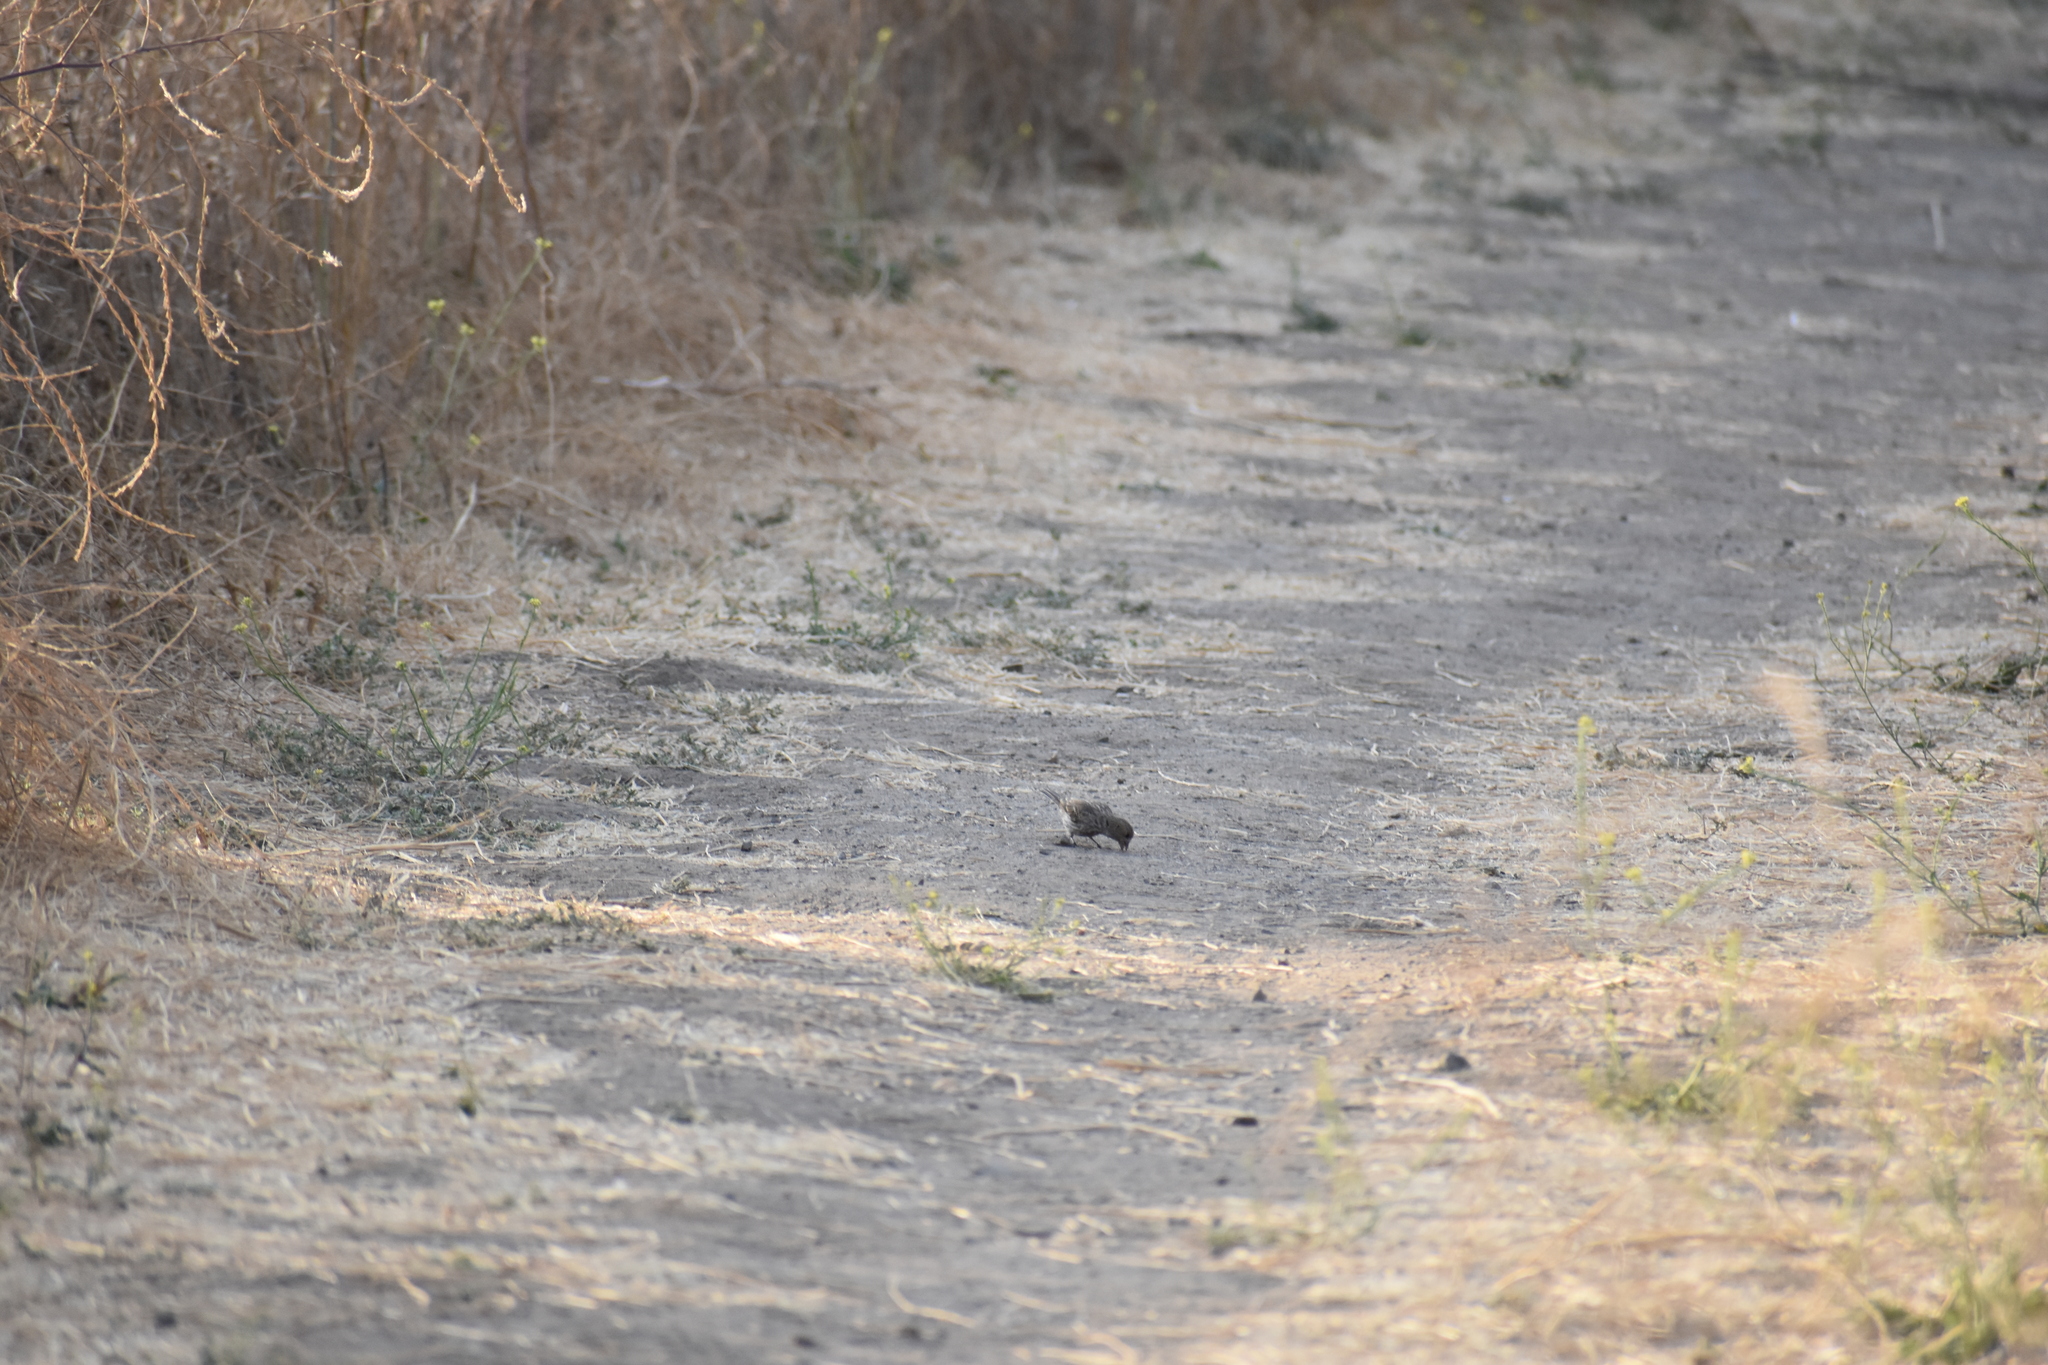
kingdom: Animalia
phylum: Chordata
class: Aves
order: Passeriformes
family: Fringillidae
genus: Haemorhous
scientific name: Haemorhous mexicanus
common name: House finch
